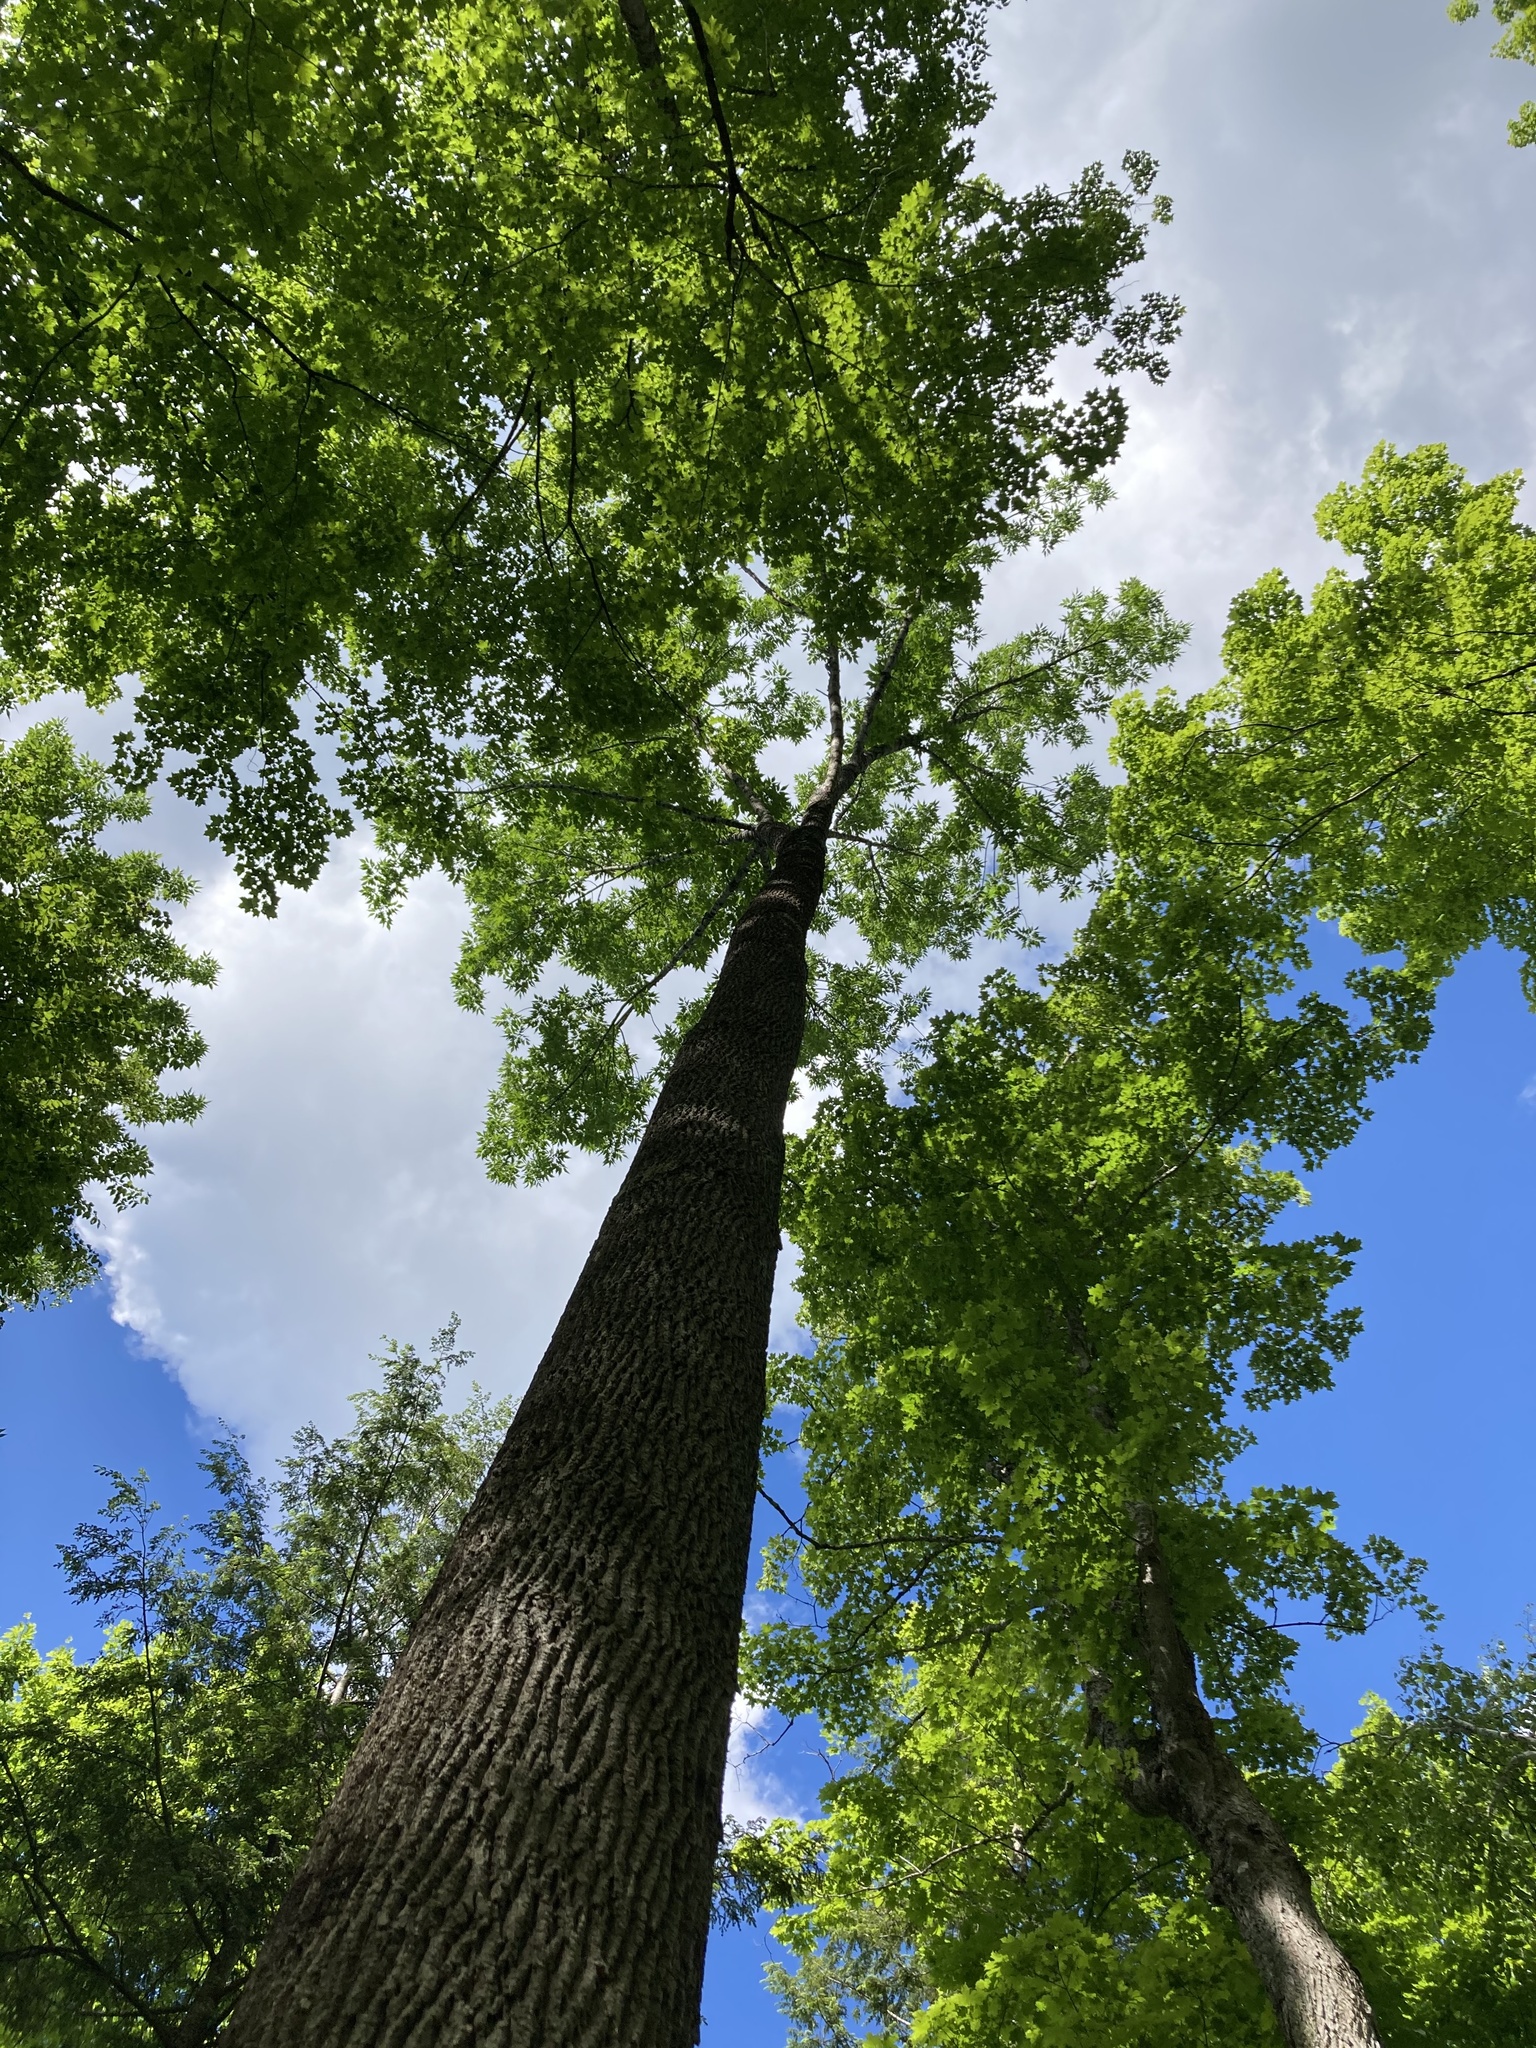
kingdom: Plantae
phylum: Tracheophyta
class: Magnoliopsida
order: Lamiales
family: Oleaceae
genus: Fraxinus
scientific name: Fraxinus americana
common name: White ash
